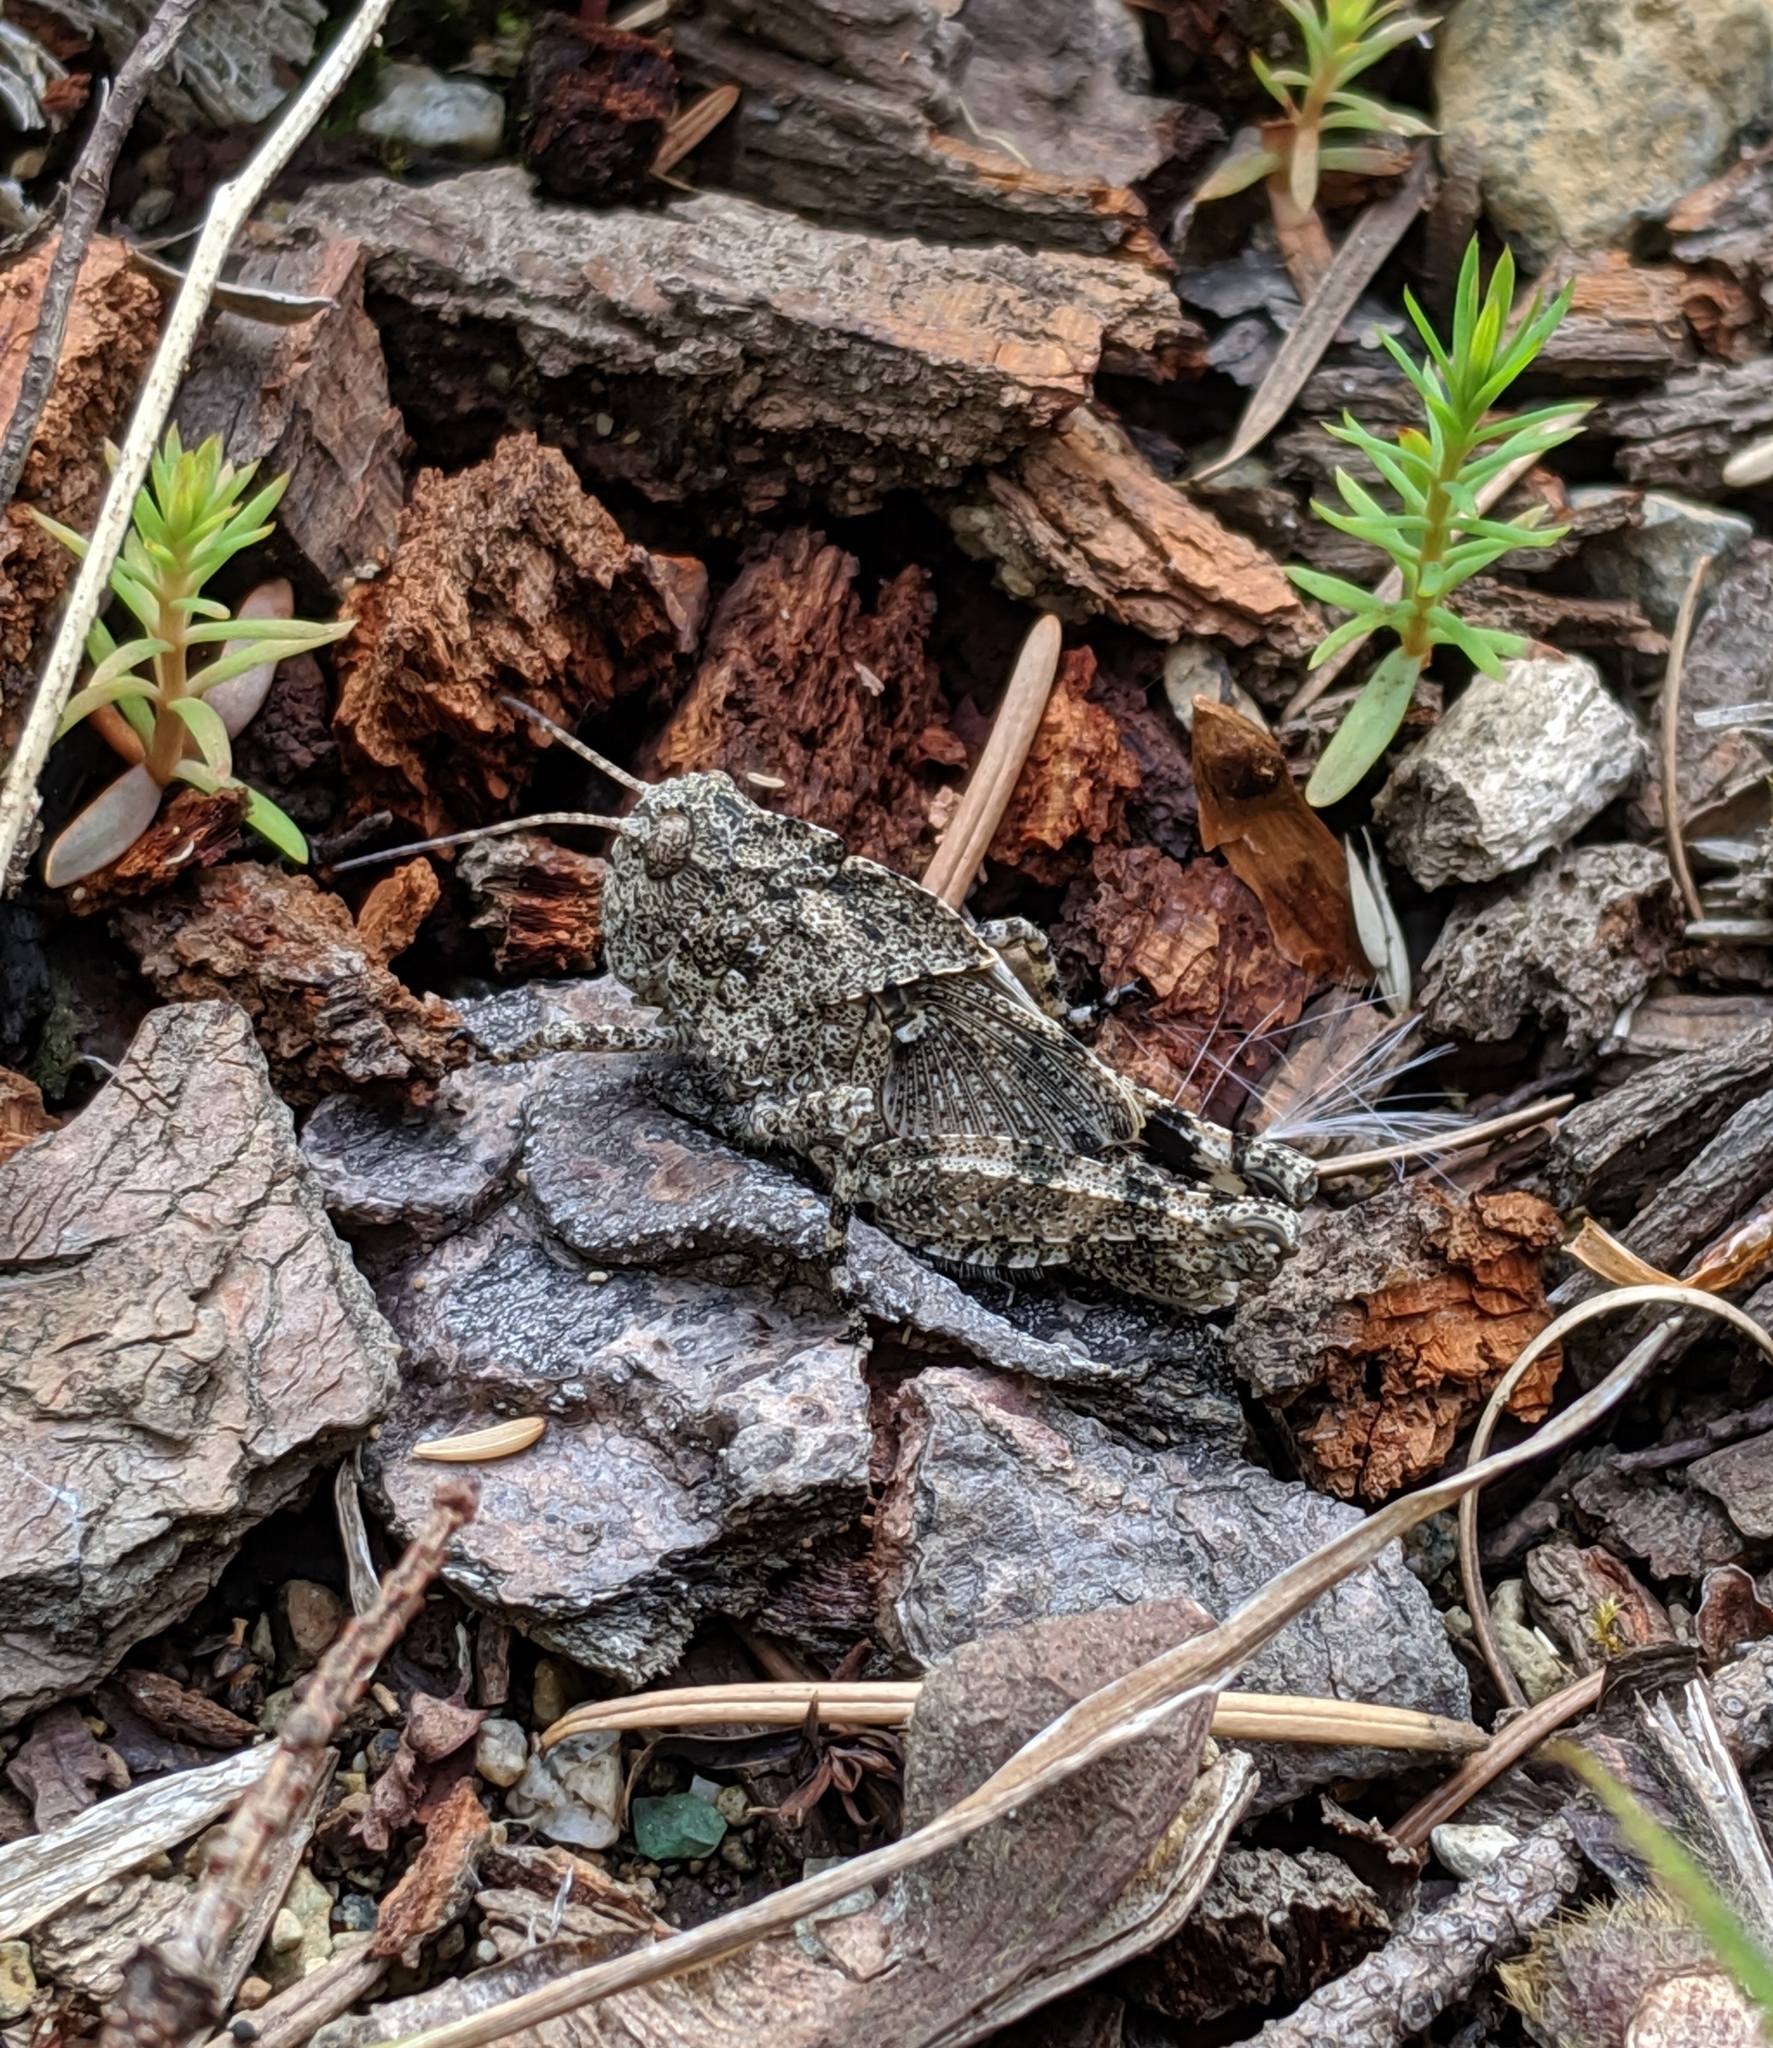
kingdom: Animalia
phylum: Arthropoda
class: Insecta
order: Orthoptera
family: Acrididae
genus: Dissosteira
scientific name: Dissosteira carolina
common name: Carolina grasshopper
